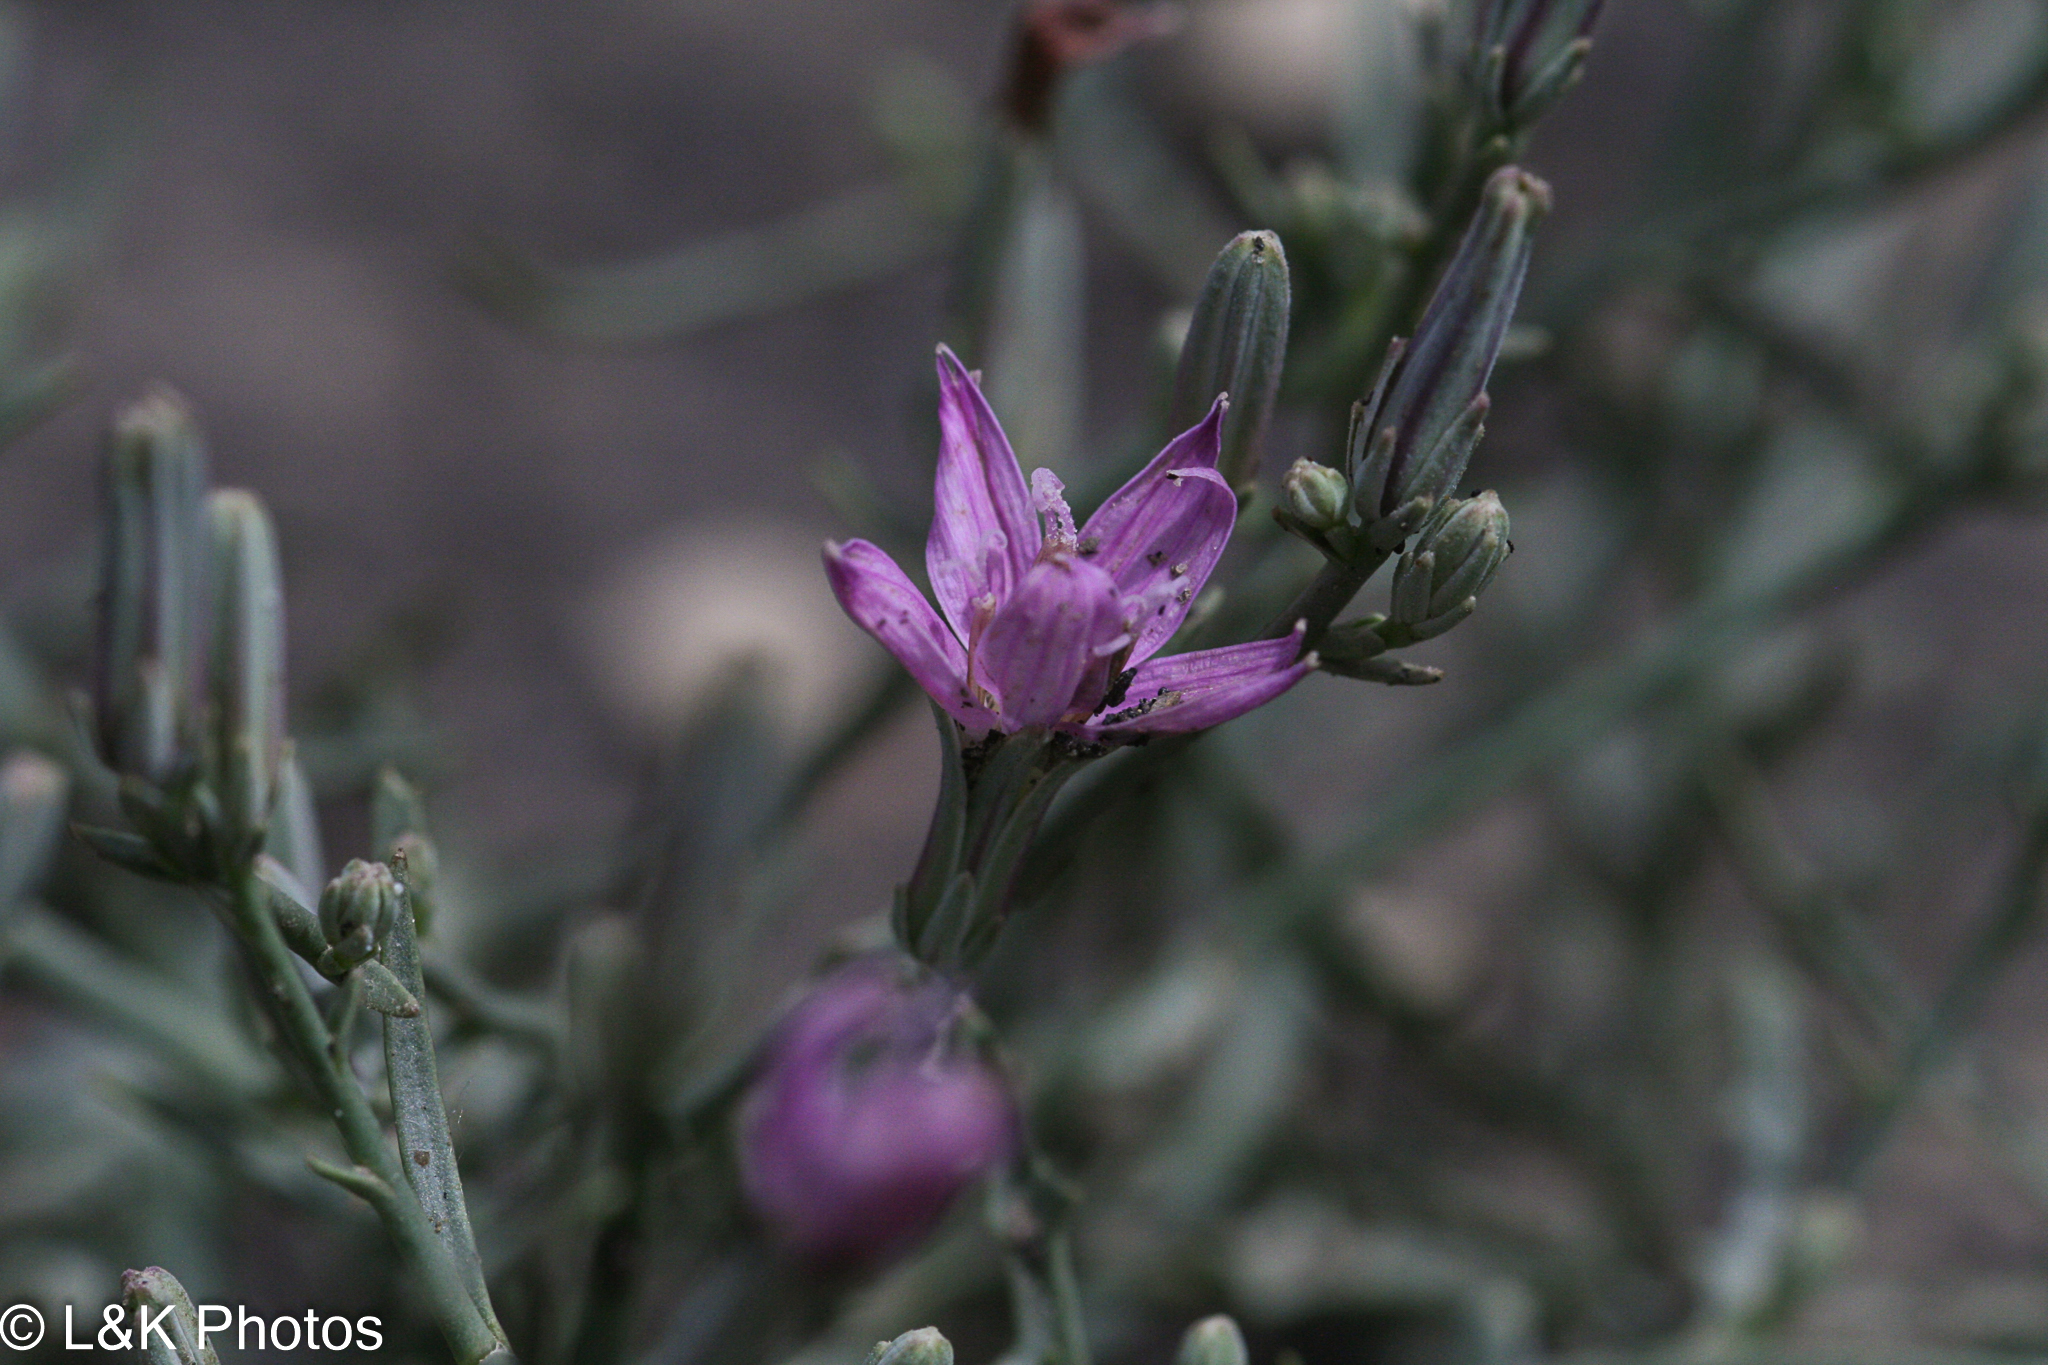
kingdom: Plantae
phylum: Tracheophyta
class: Magnoliopsida
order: Asterales
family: Asteraceae
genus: Stephanomeria
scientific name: Stephanomeria runcinata
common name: Desert wirelettuce
